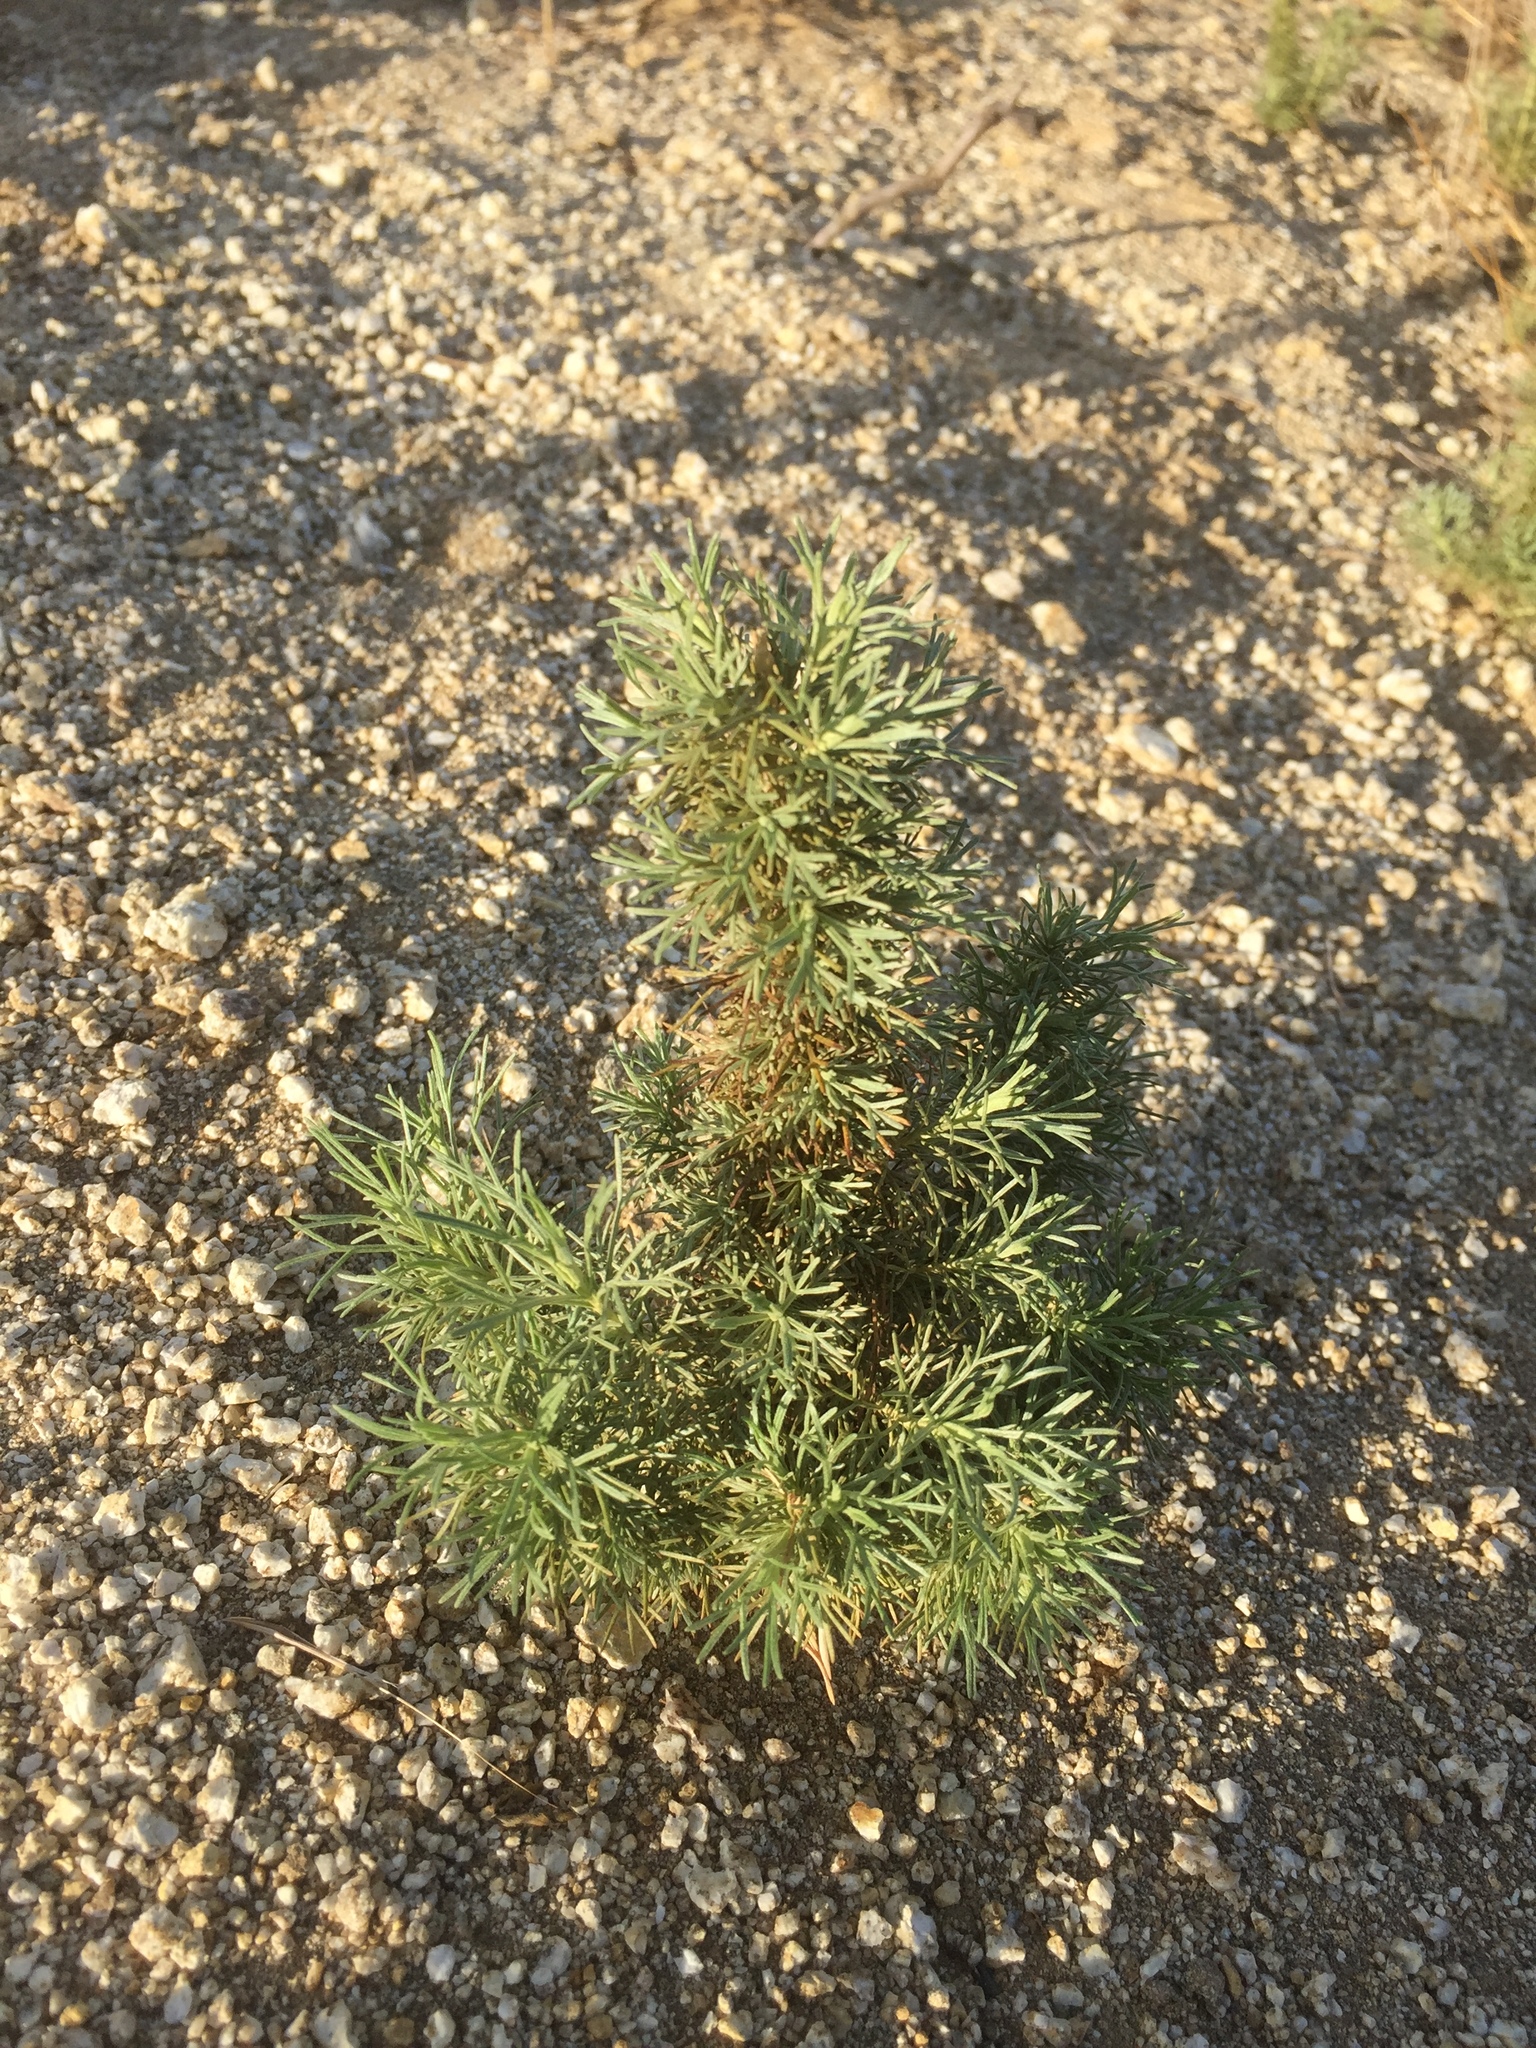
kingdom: Plantae
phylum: Tracheophyta
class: Magnoliopsida
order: Asterales
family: Asteraceae
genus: Artemisia
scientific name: Artemisia californica
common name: California sagebrush
